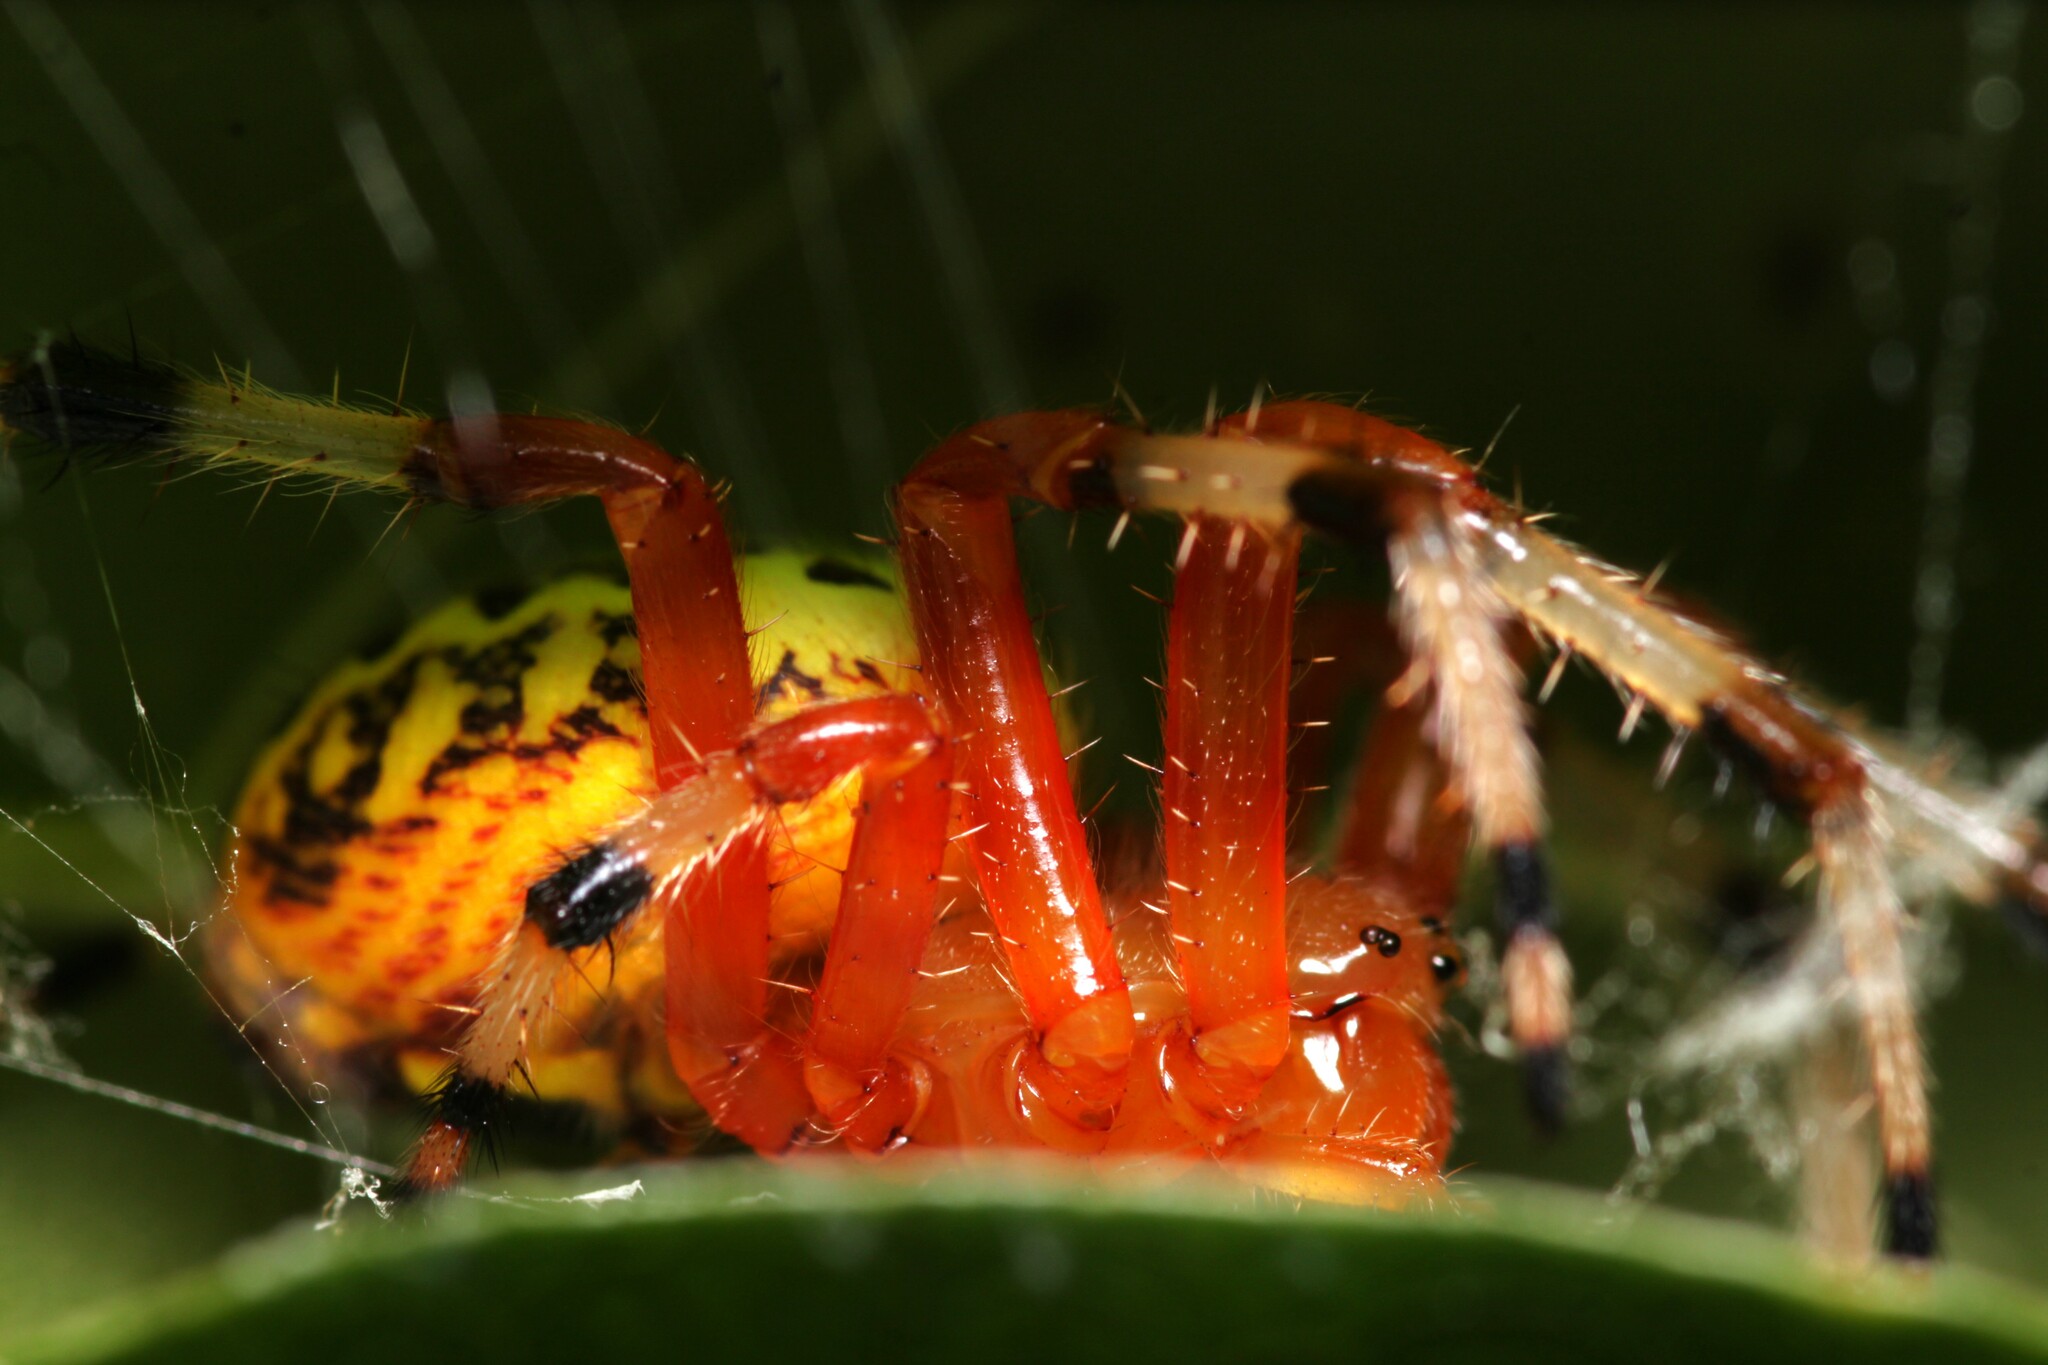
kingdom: Animalia
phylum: Arthropoda
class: Arachnida
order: Araneae
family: Araneidae
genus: Araneus
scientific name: Araneus marmoreus
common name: Marbled orbweaver
